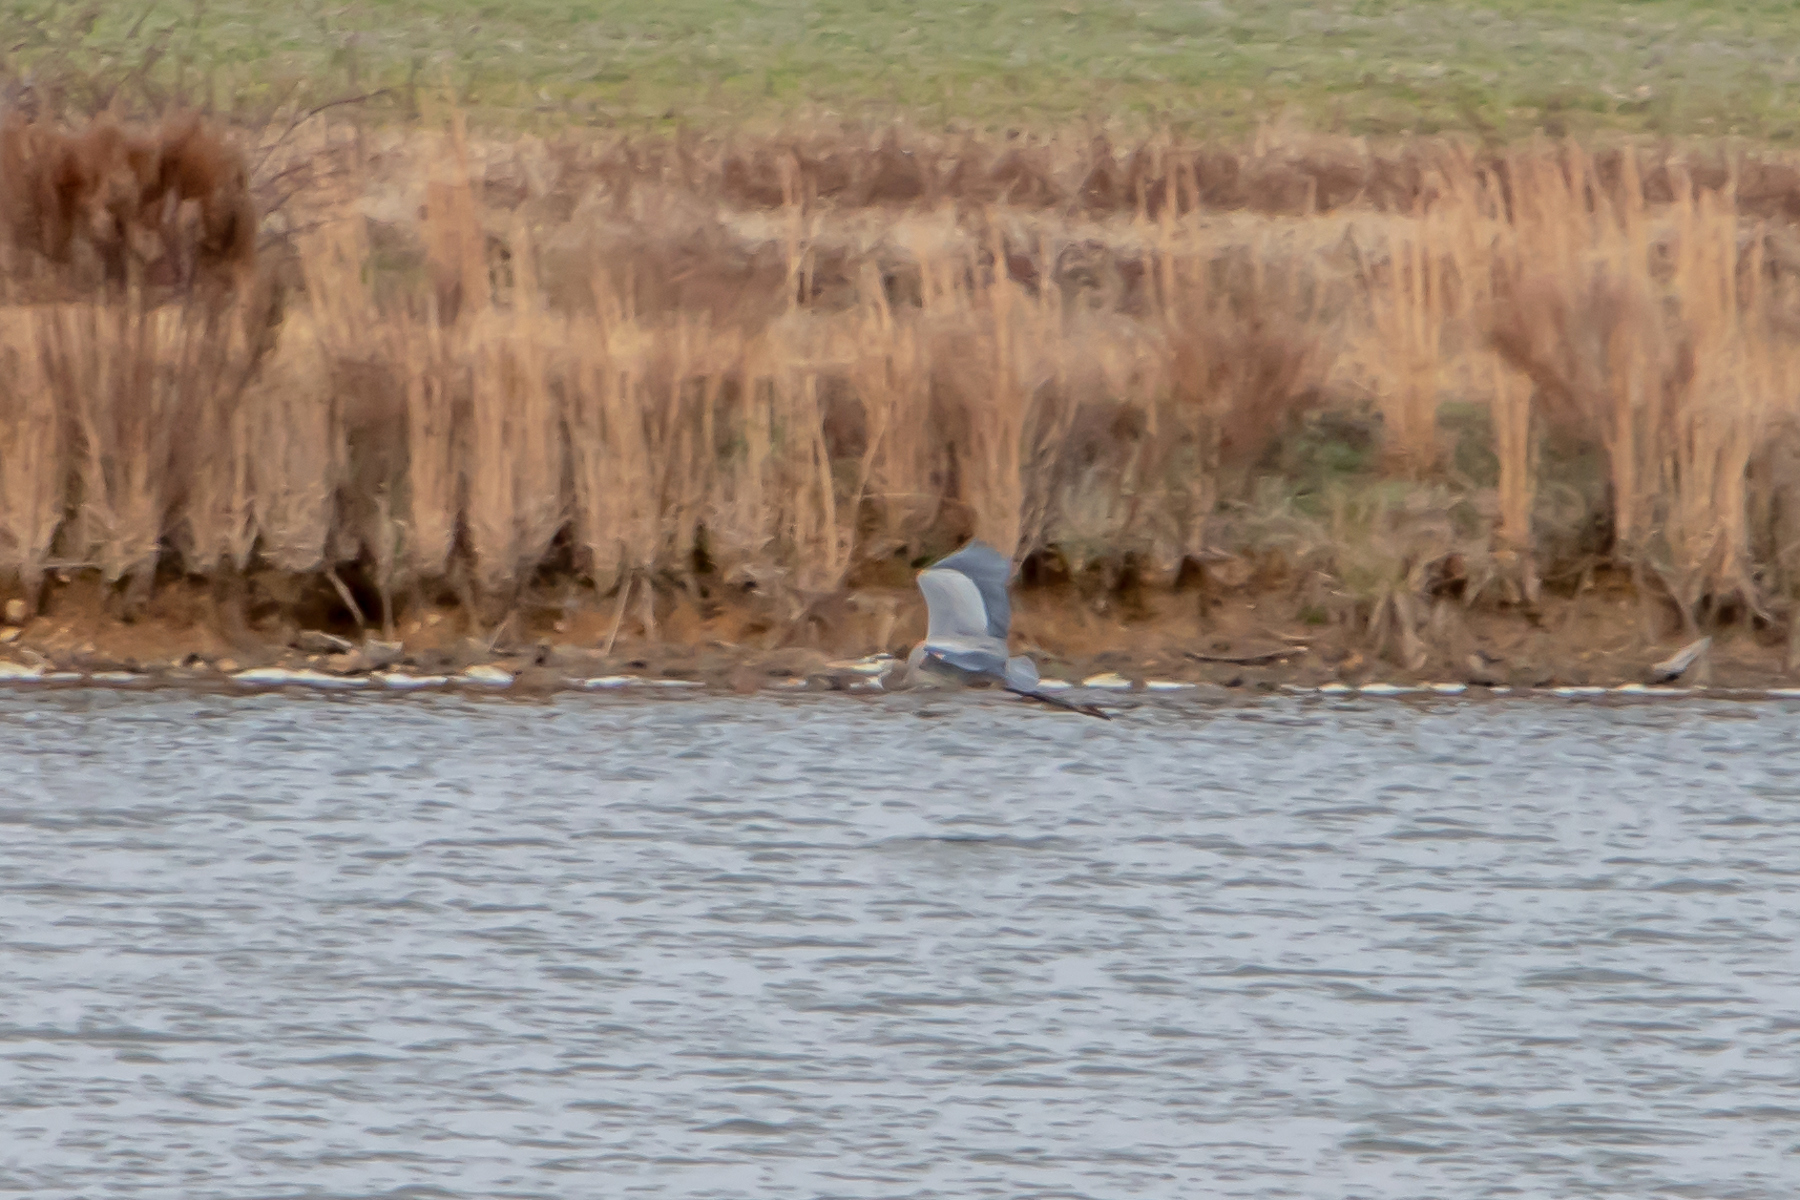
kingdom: Animalia
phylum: Chordata
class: Aves
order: Pelecaniformes
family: Ardeidae
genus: Ardea
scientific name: Ardea herodias
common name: Great blue heron
